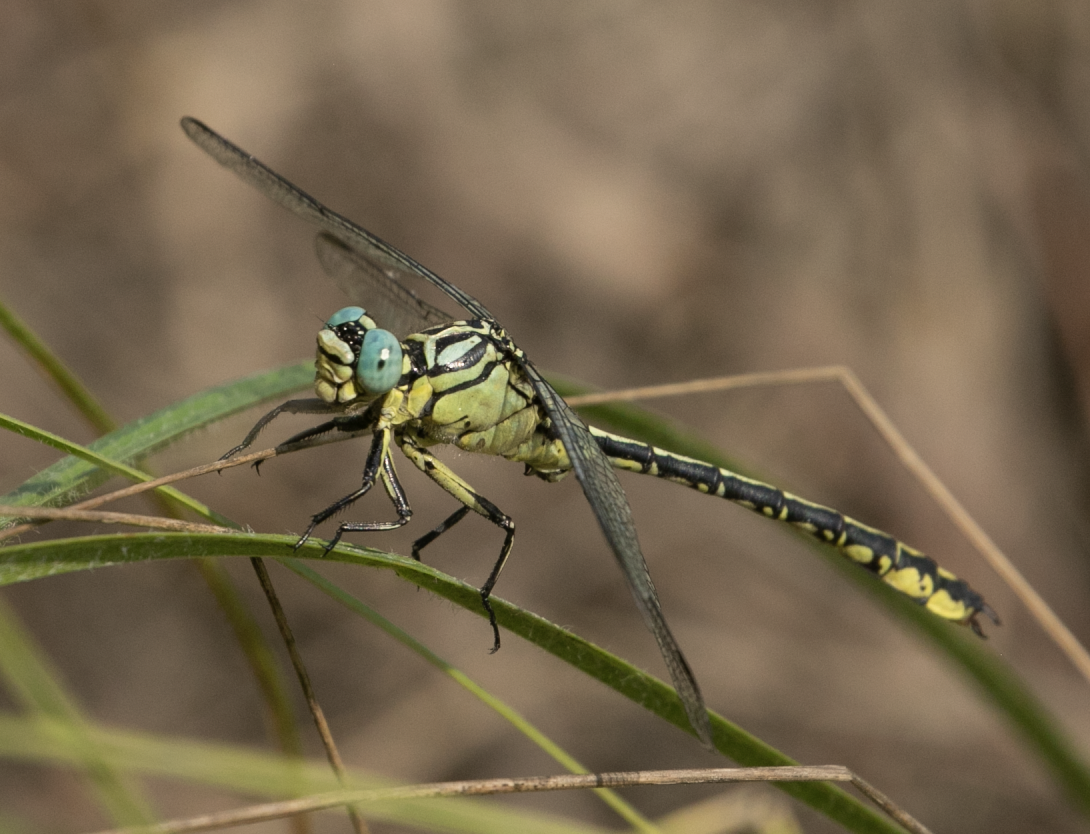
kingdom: Animalia
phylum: Arthropoda
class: Insecta
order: Odonata
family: Gomphidae
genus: Stylurus
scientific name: Stylurus flavipes
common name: River clubtail
